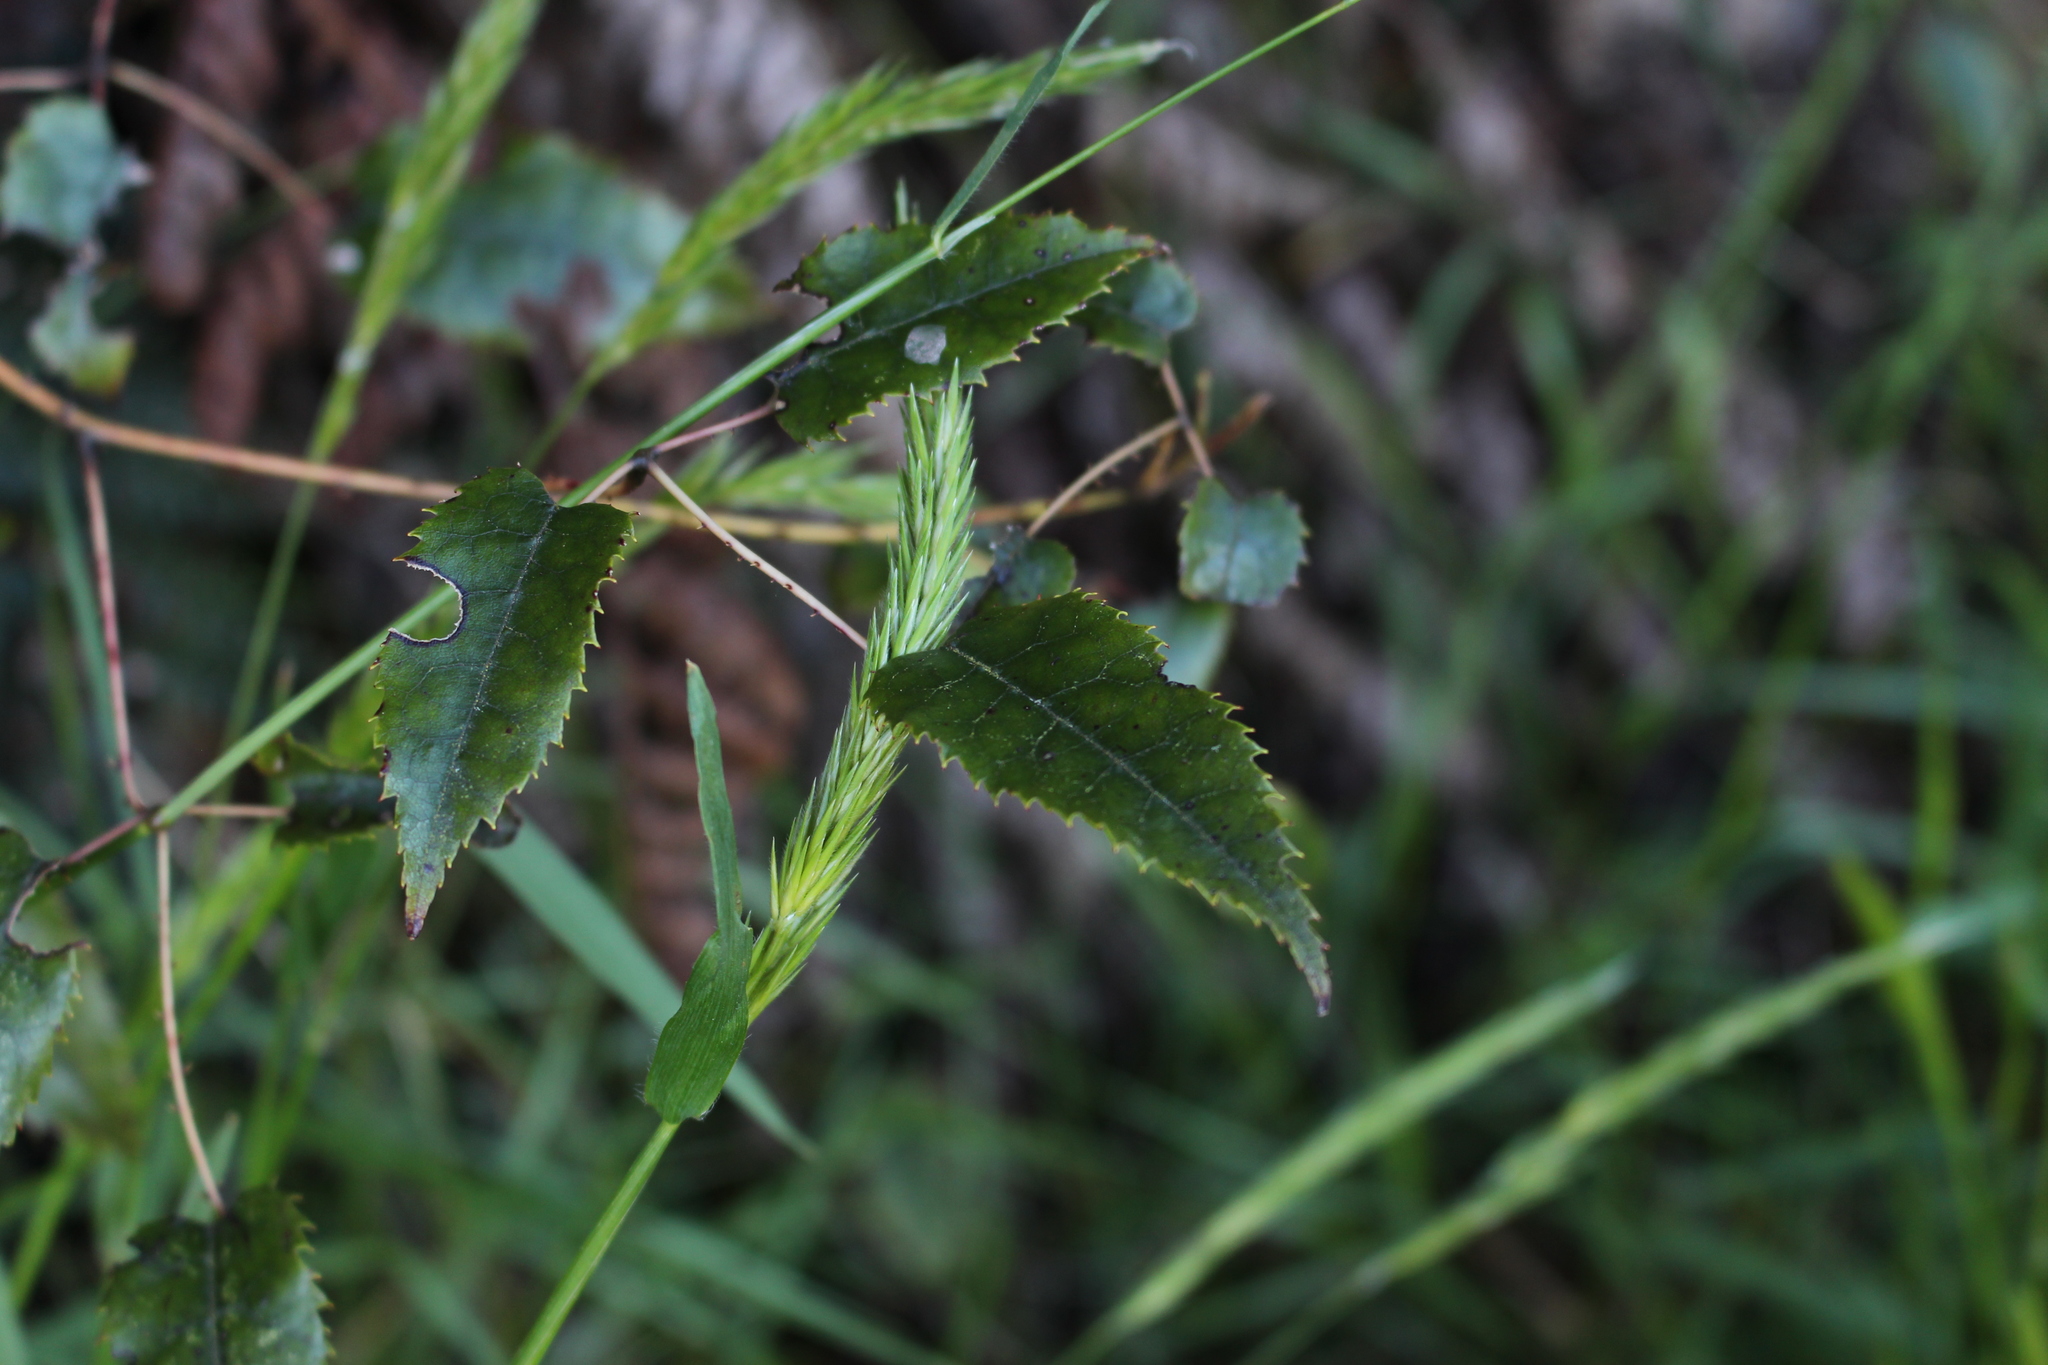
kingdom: Plantae
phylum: Tracheophyta
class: Magnoliopsida
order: Rosales
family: Rosaceae
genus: Rubus
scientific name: Rubus schmidelioides
